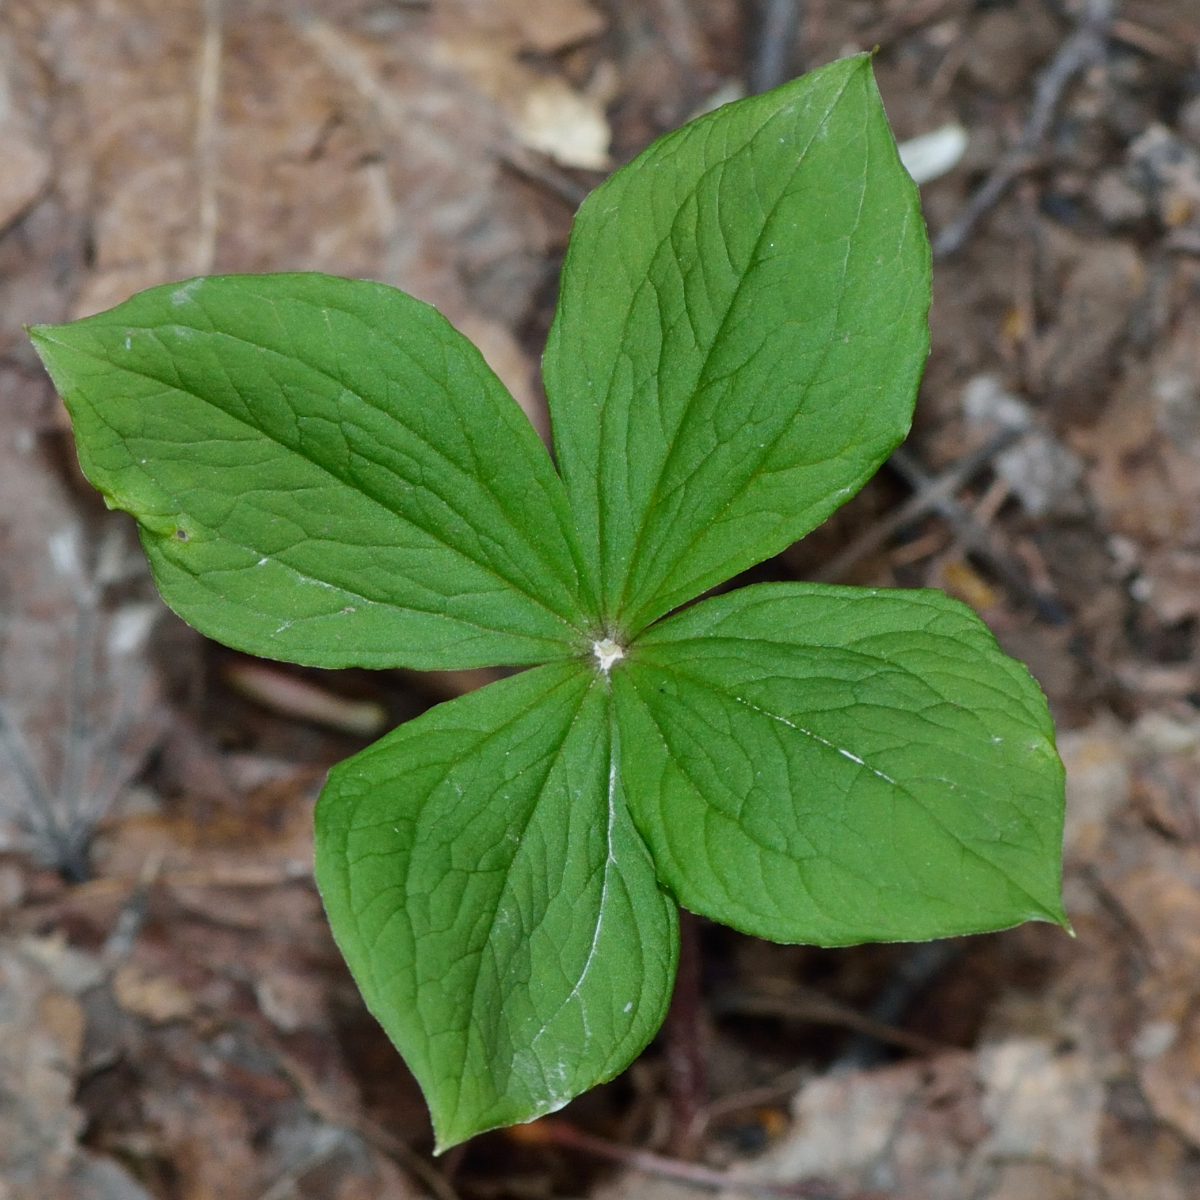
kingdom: Plantae
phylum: Tracheophyta
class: Liliopsida
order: Liliales
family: Melanthiaceae
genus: Paris
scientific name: Paris quadrifolia
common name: Herb-paris
